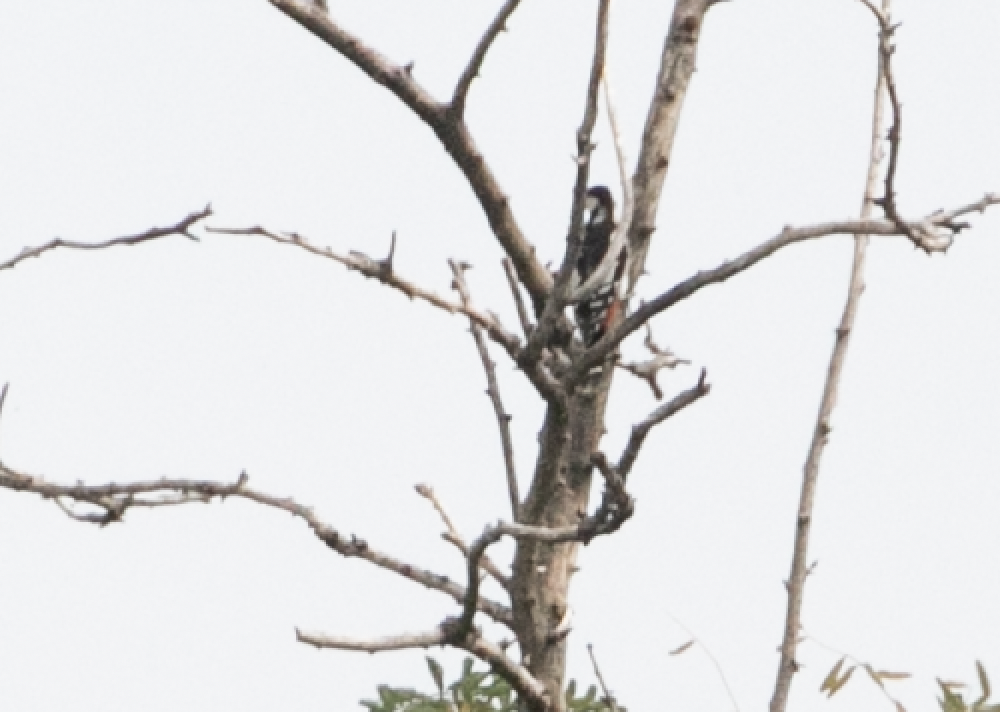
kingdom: Animalia
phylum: Chordata
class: Aves
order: Piciformes
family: Picidae
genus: Dendrocopos
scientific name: Dendrocopos major
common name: Great spotted woodpecker
